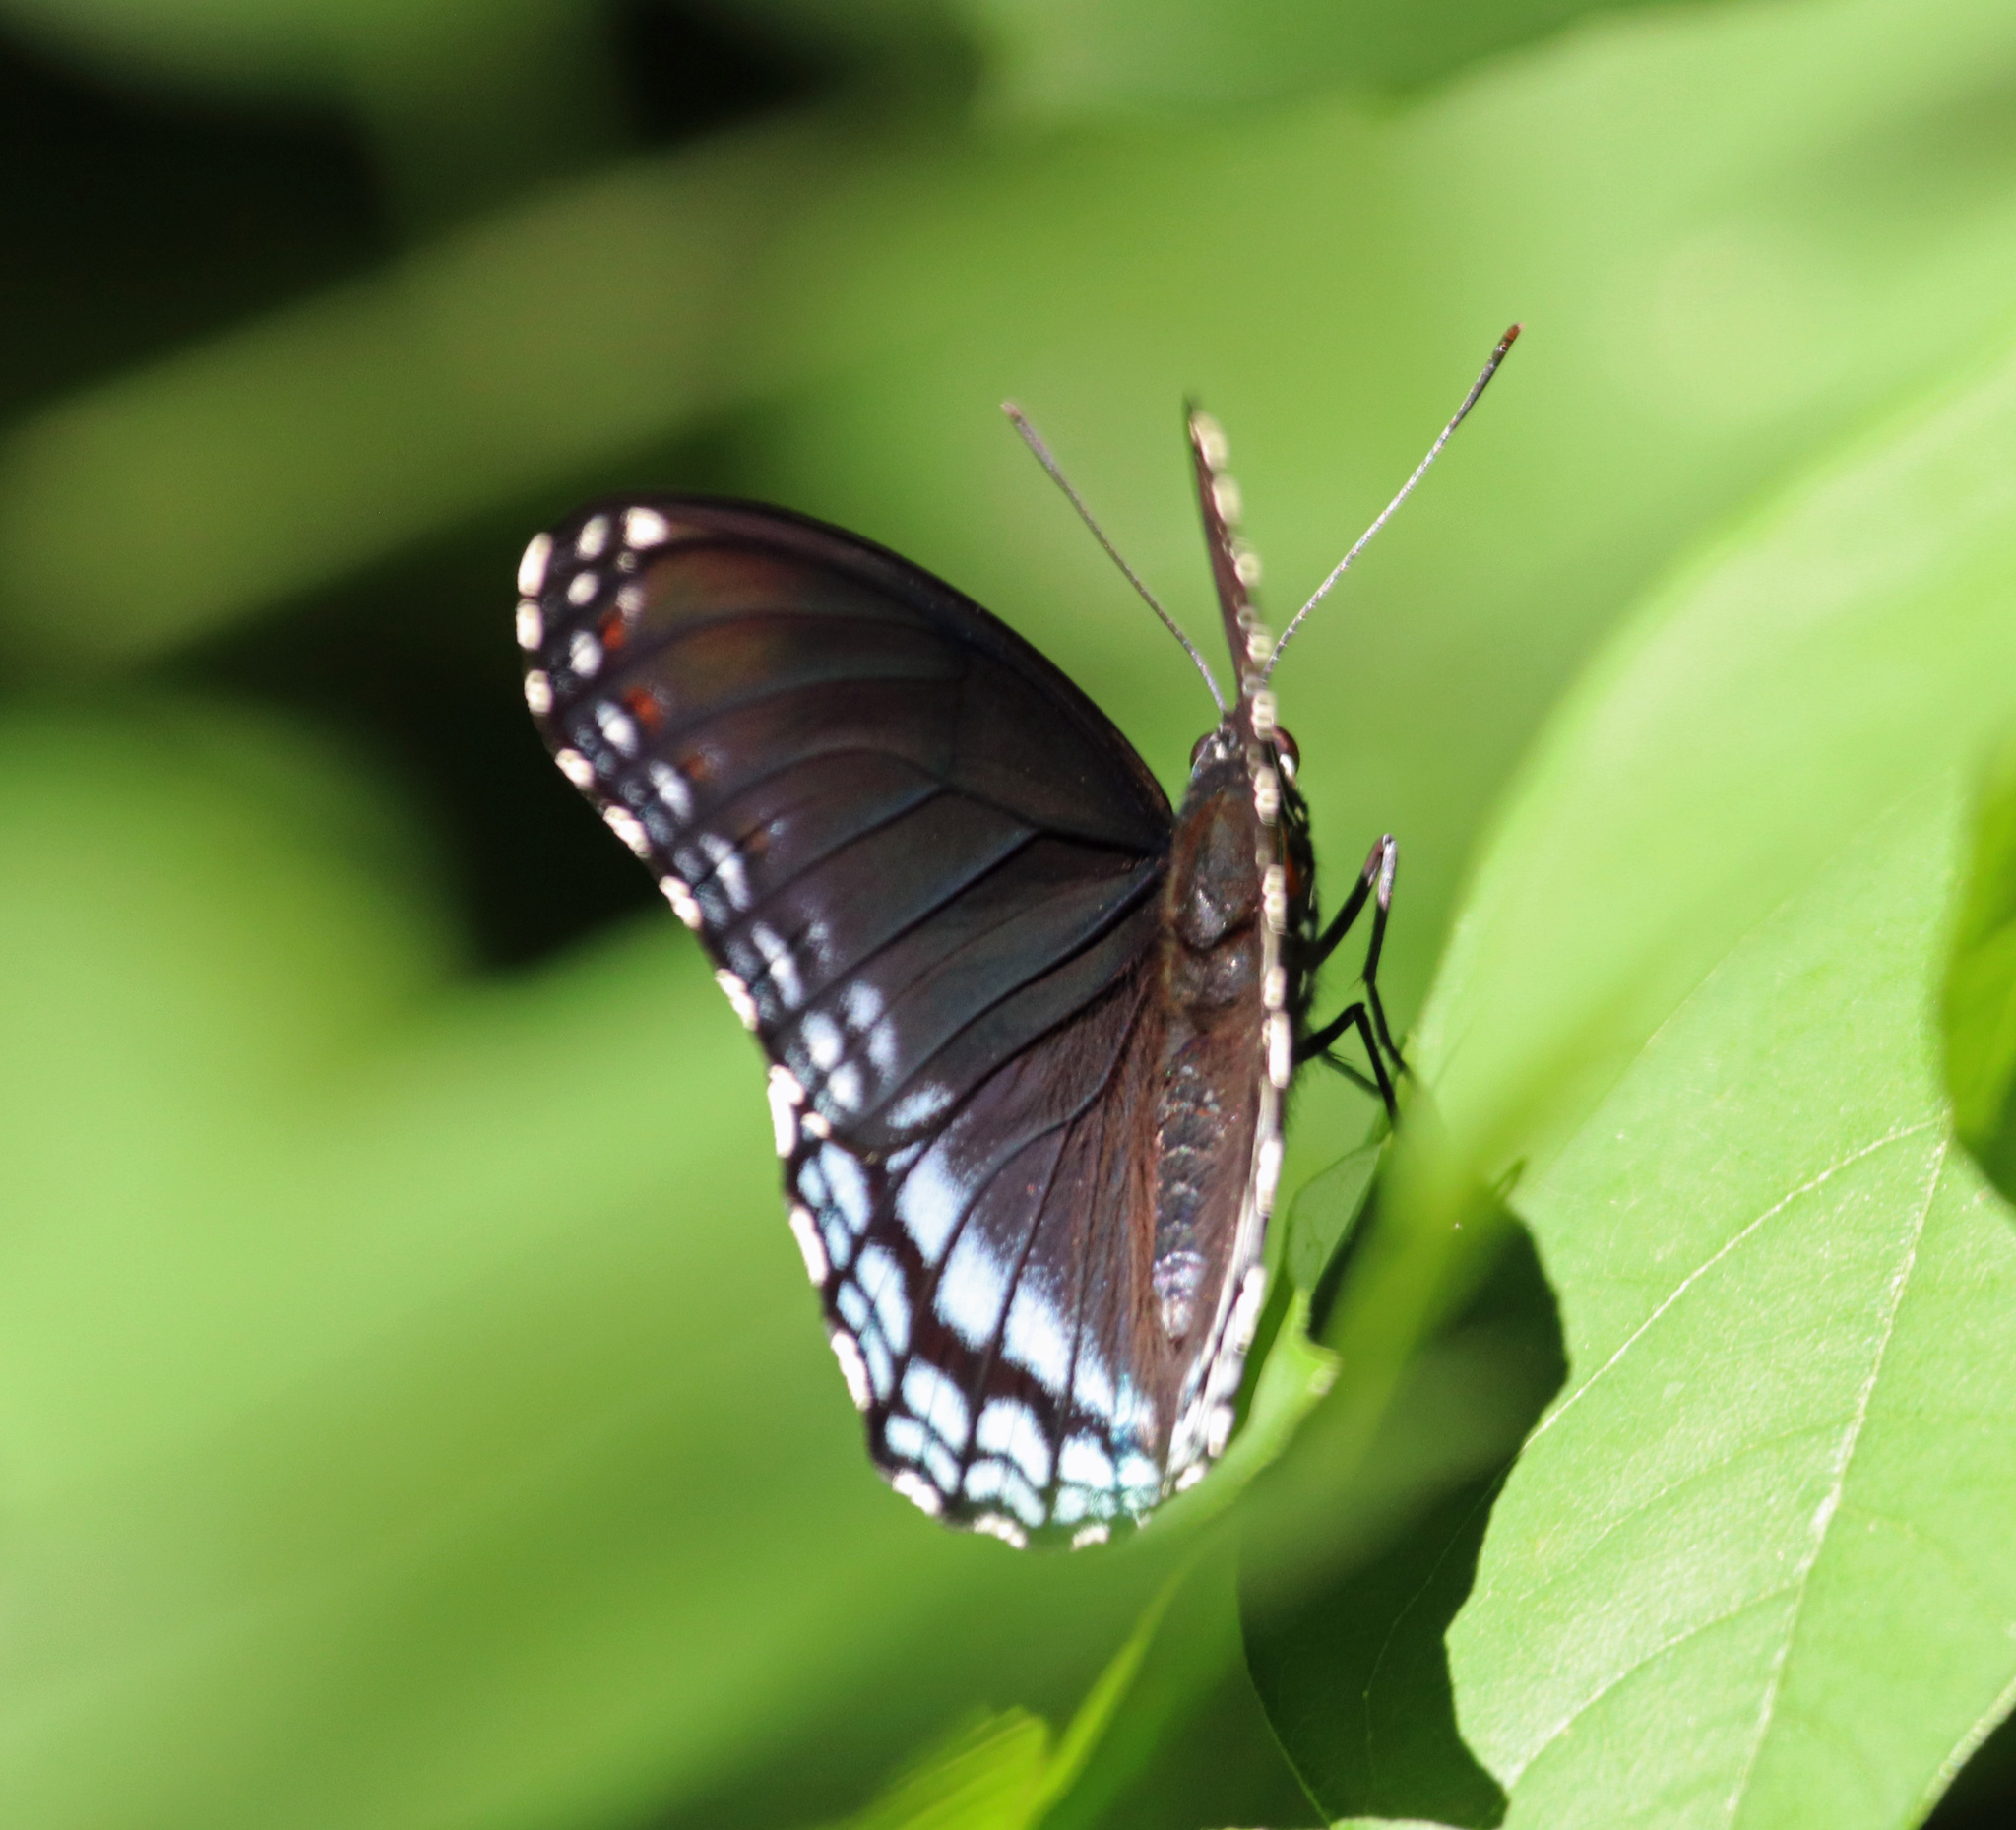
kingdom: Animalia
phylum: Arthropoda
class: Insecta
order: Lepidoptera
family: Nymphalidae
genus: Limenitis
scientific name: Limenitis astyanax
